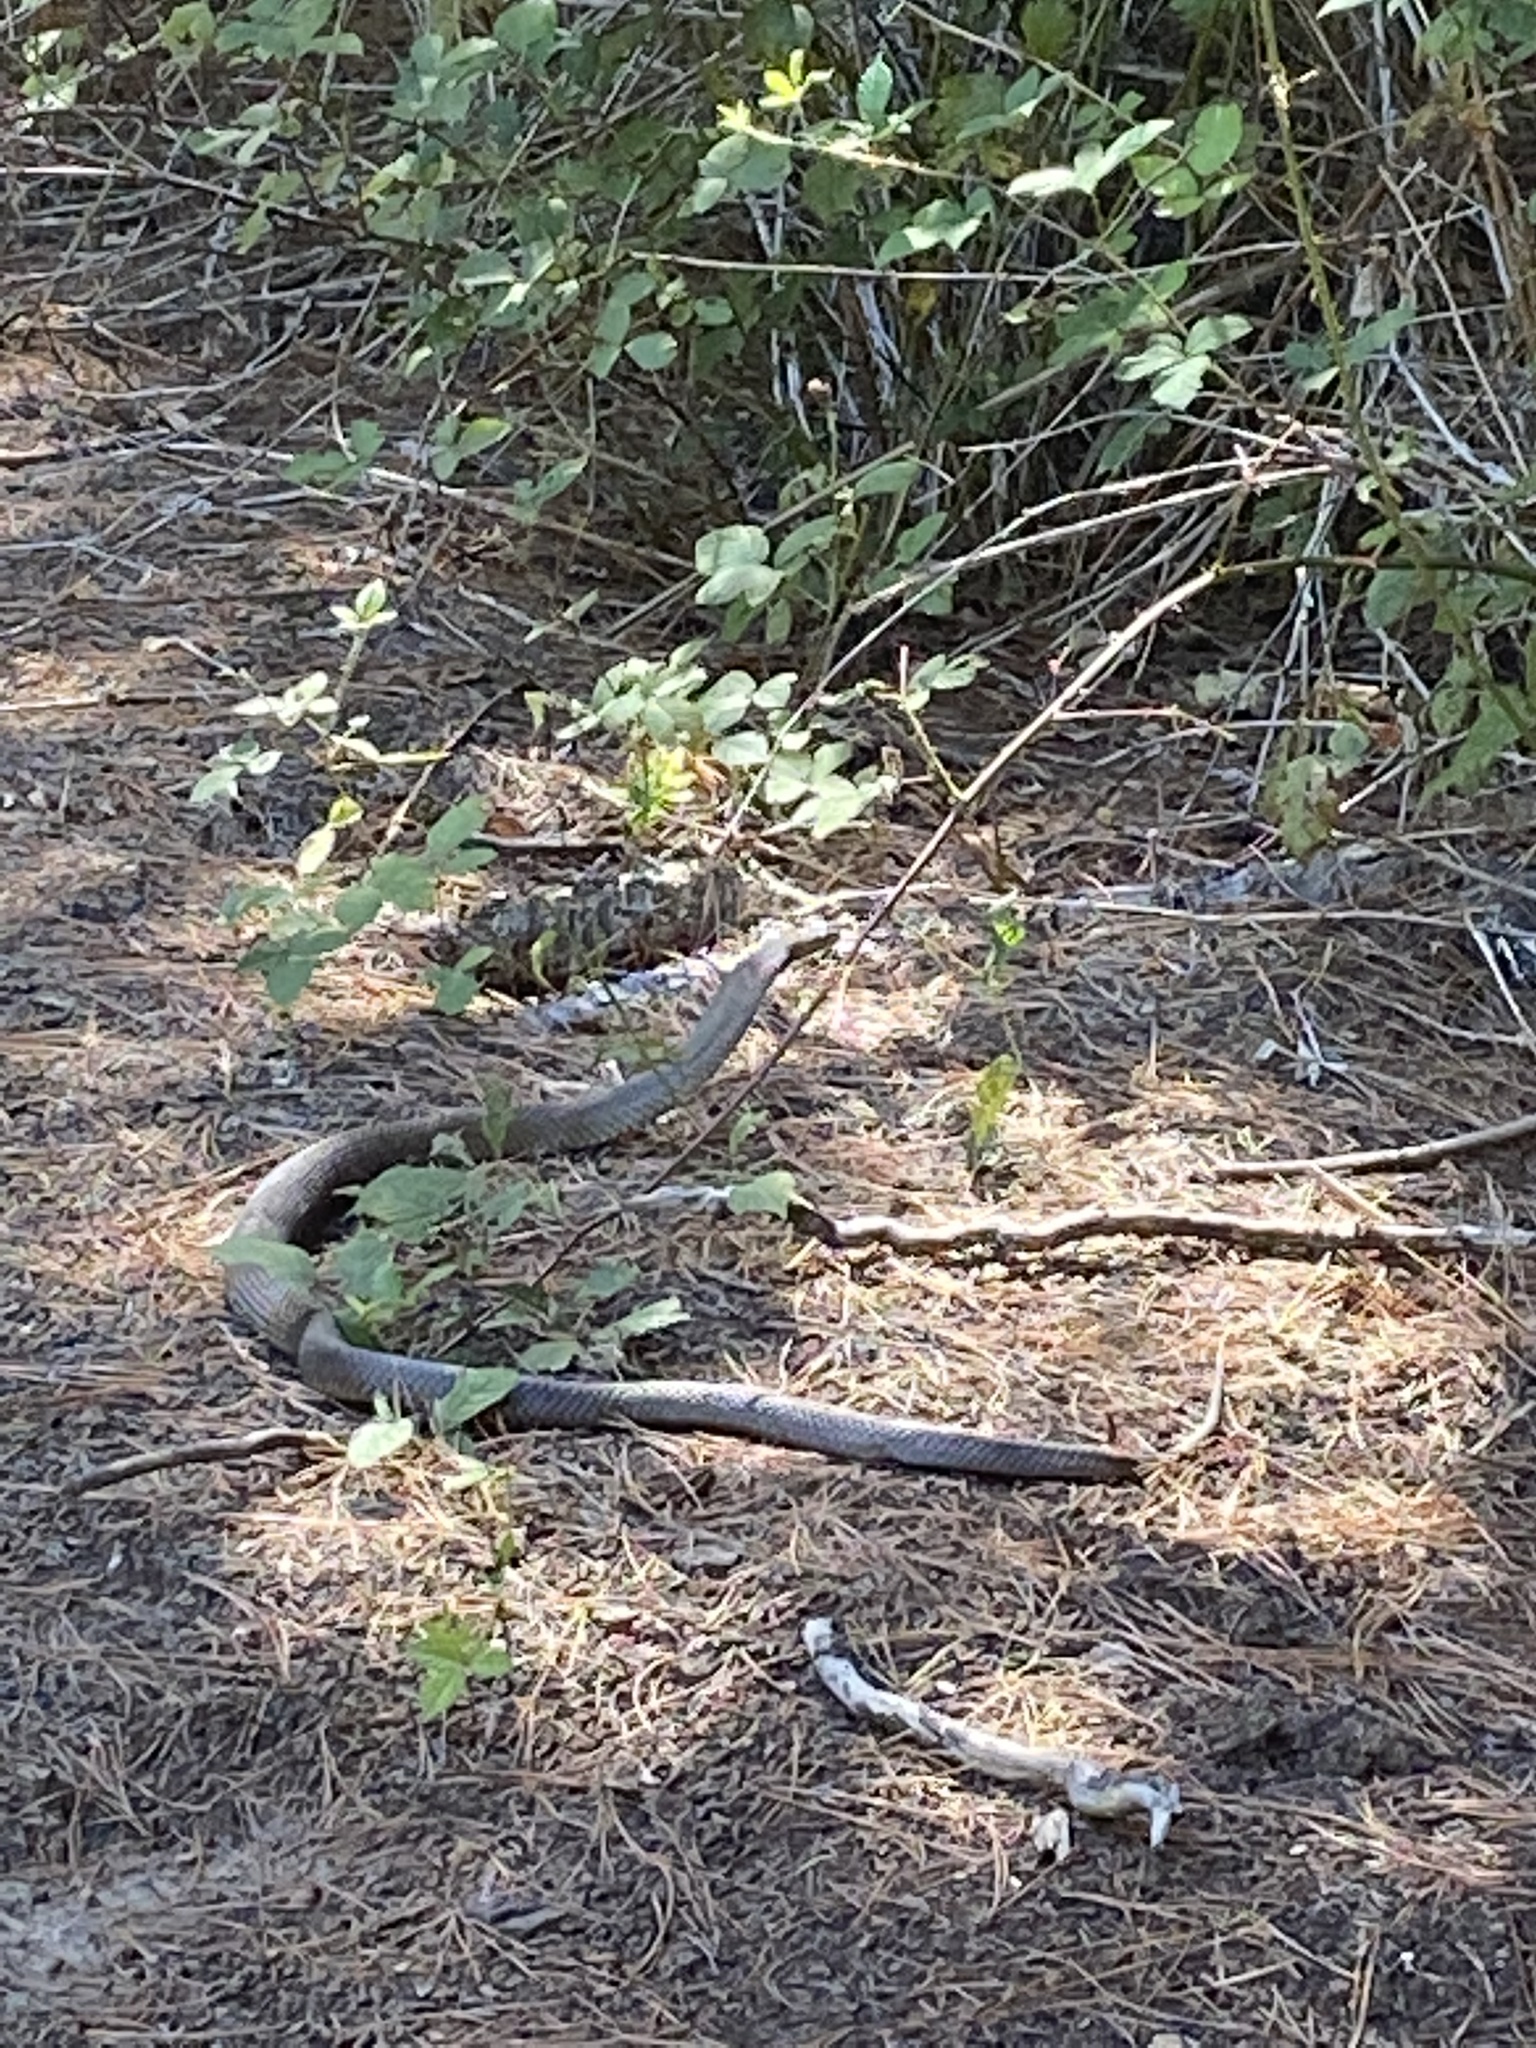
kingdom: Animalia
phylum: Chordata
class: Squamata
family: Elapidae
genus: Pseudonaja
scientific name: Pseudonaja textilis
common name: Eastern brown snake
